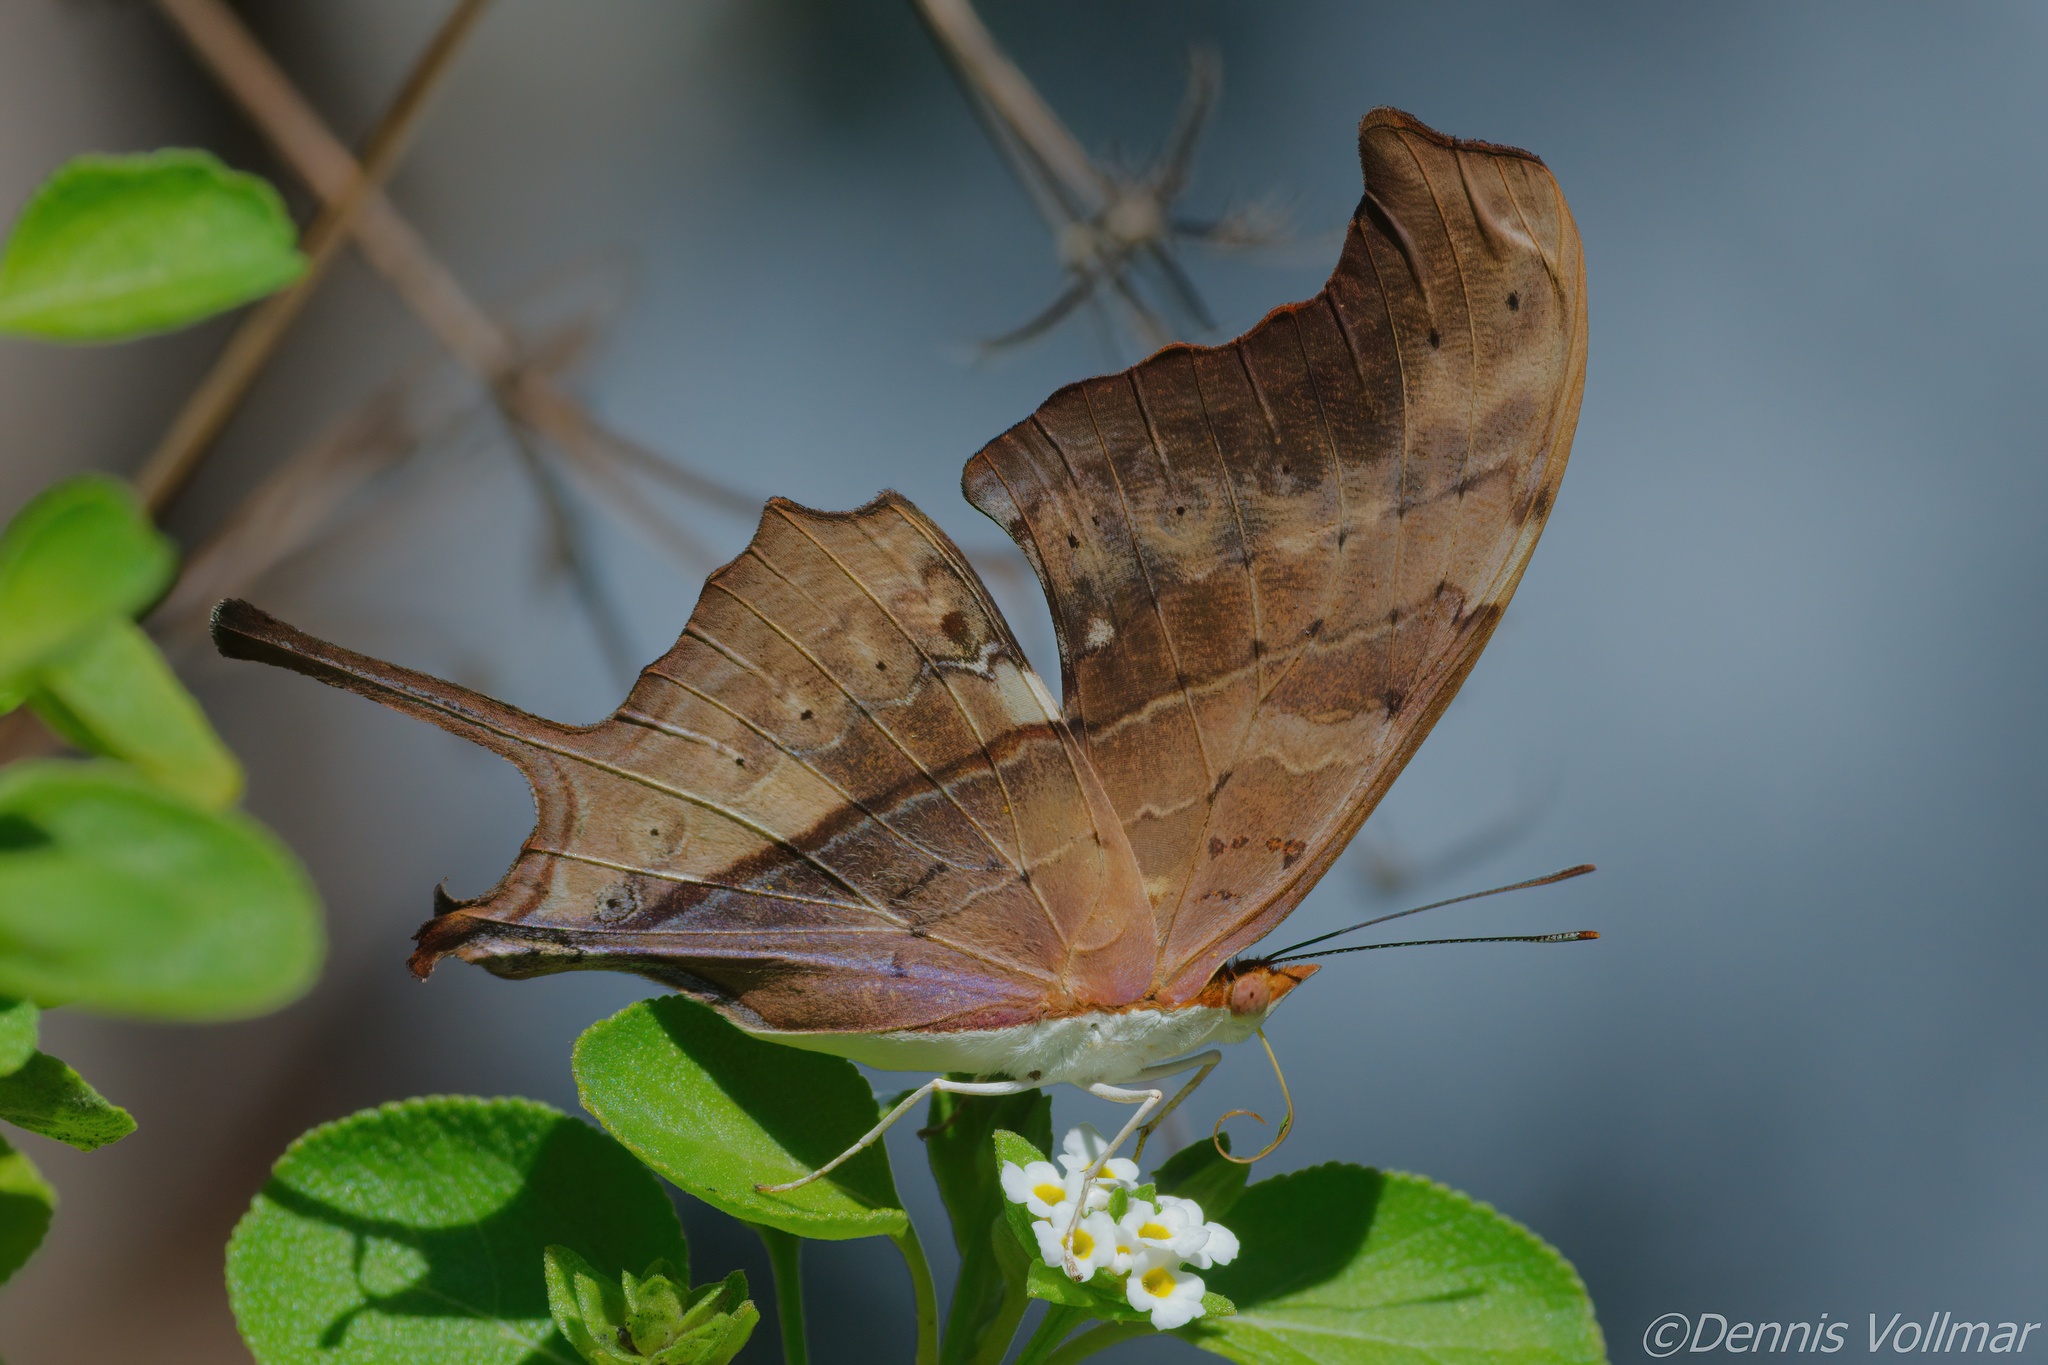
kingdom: Animalia
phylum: Arthropoda
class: Insecta
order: Lepidoptera
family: Nymphalidae
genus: Marpesia
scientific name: Marpesia petreus
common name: Red dagger wing
